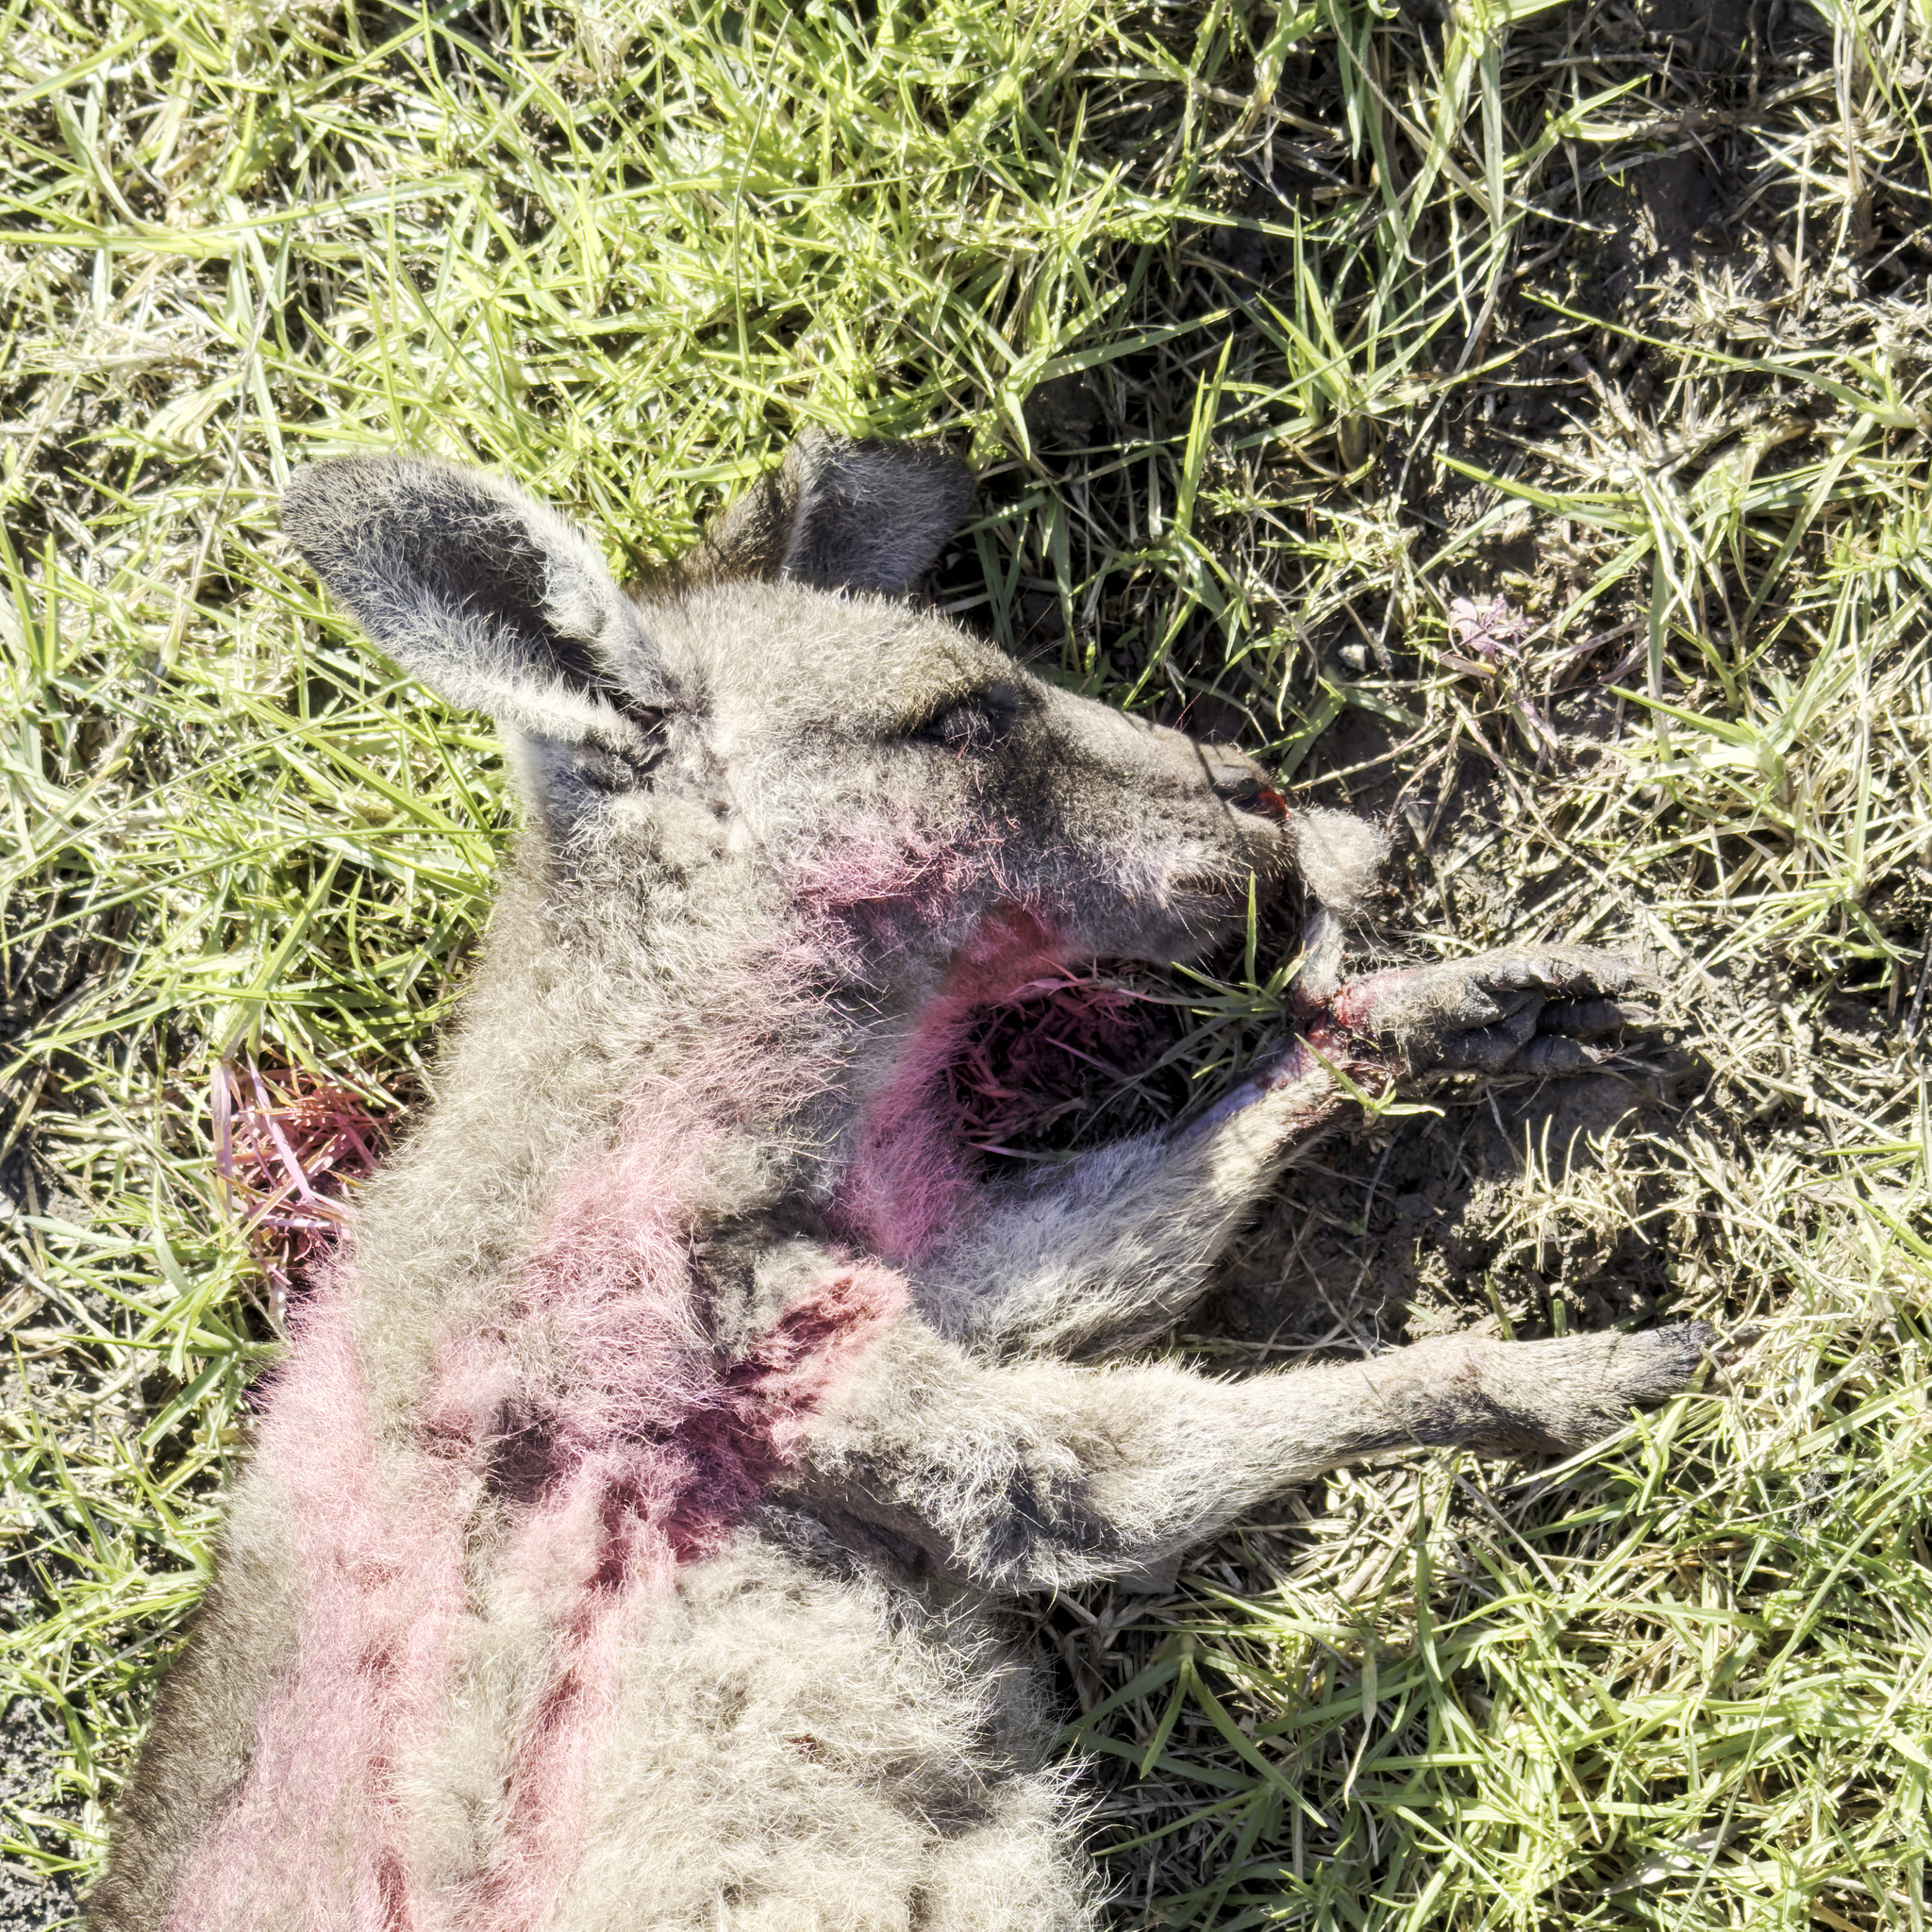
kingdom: Animalia
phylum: Chordata
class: Mammalia
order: Diprotodontia
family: Macropodidae
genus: Macropus
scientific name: Macropus giganteus
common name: Eastern grey kangaroo
